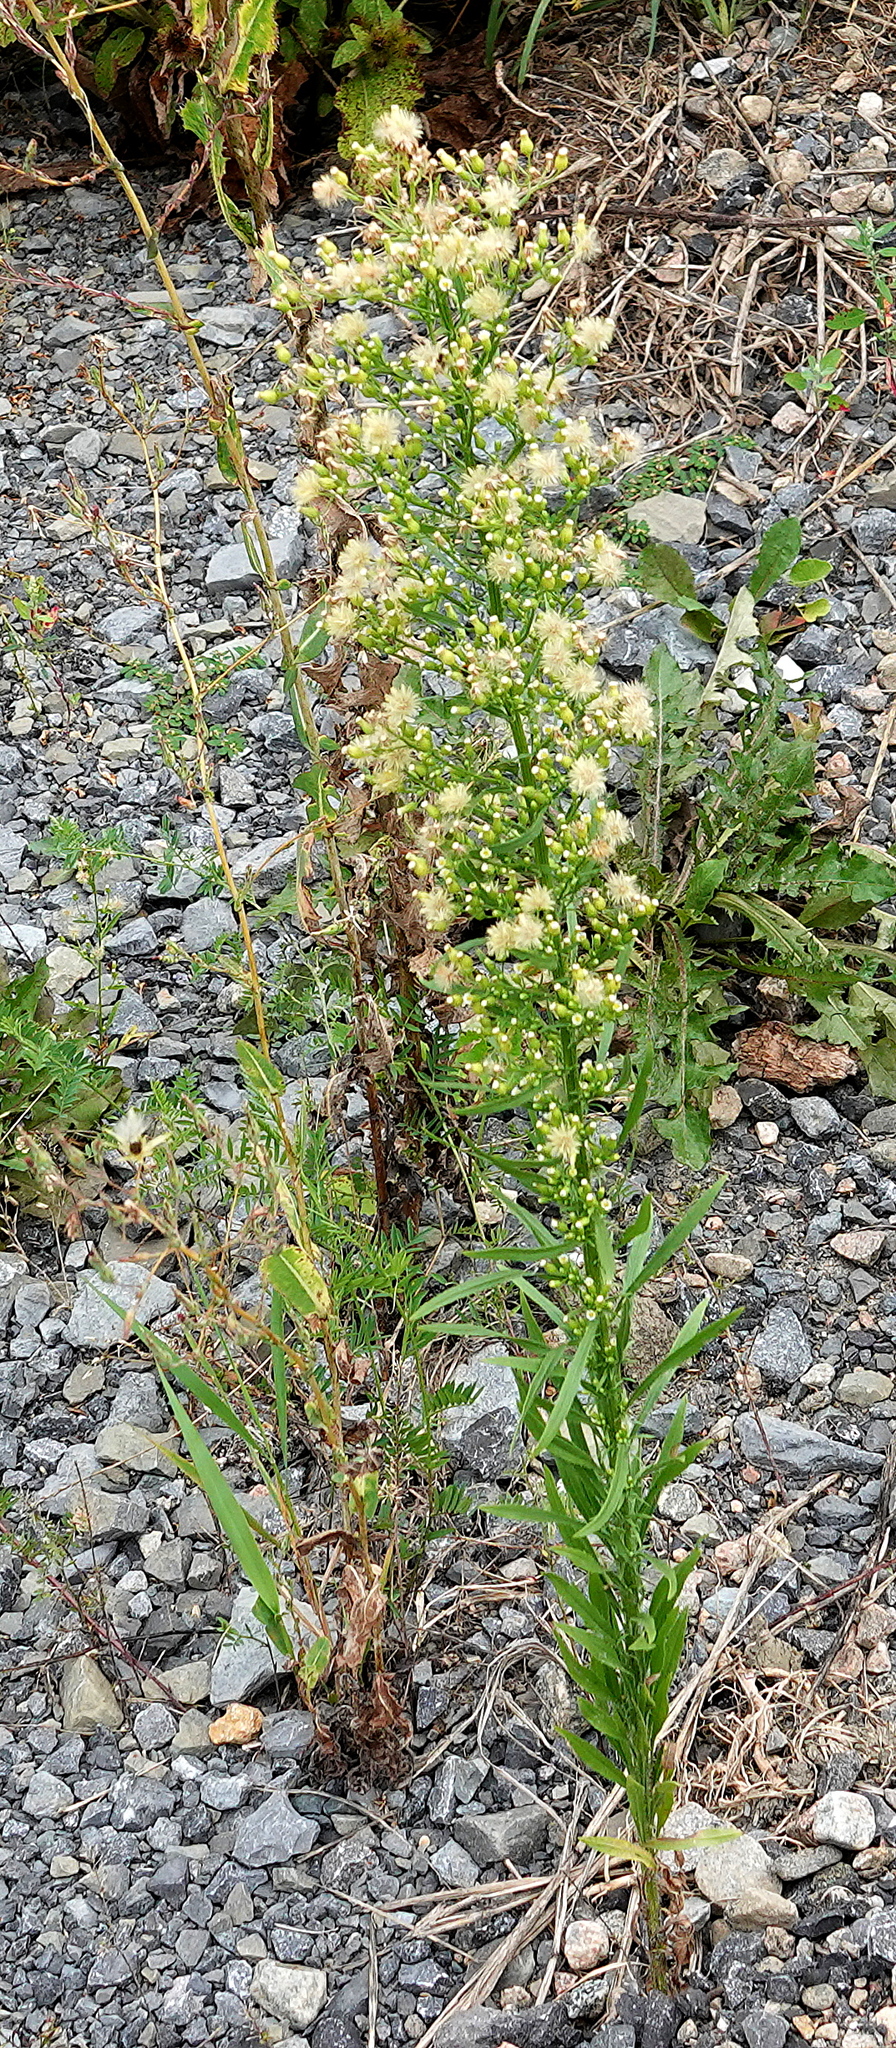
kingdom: Plantae
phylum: Tracheophyta
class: Magnoliopsida
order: Asterales
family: Asteraceae
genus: Erigeron
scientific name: Erigeron canadensis
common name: Canadian fleabane
